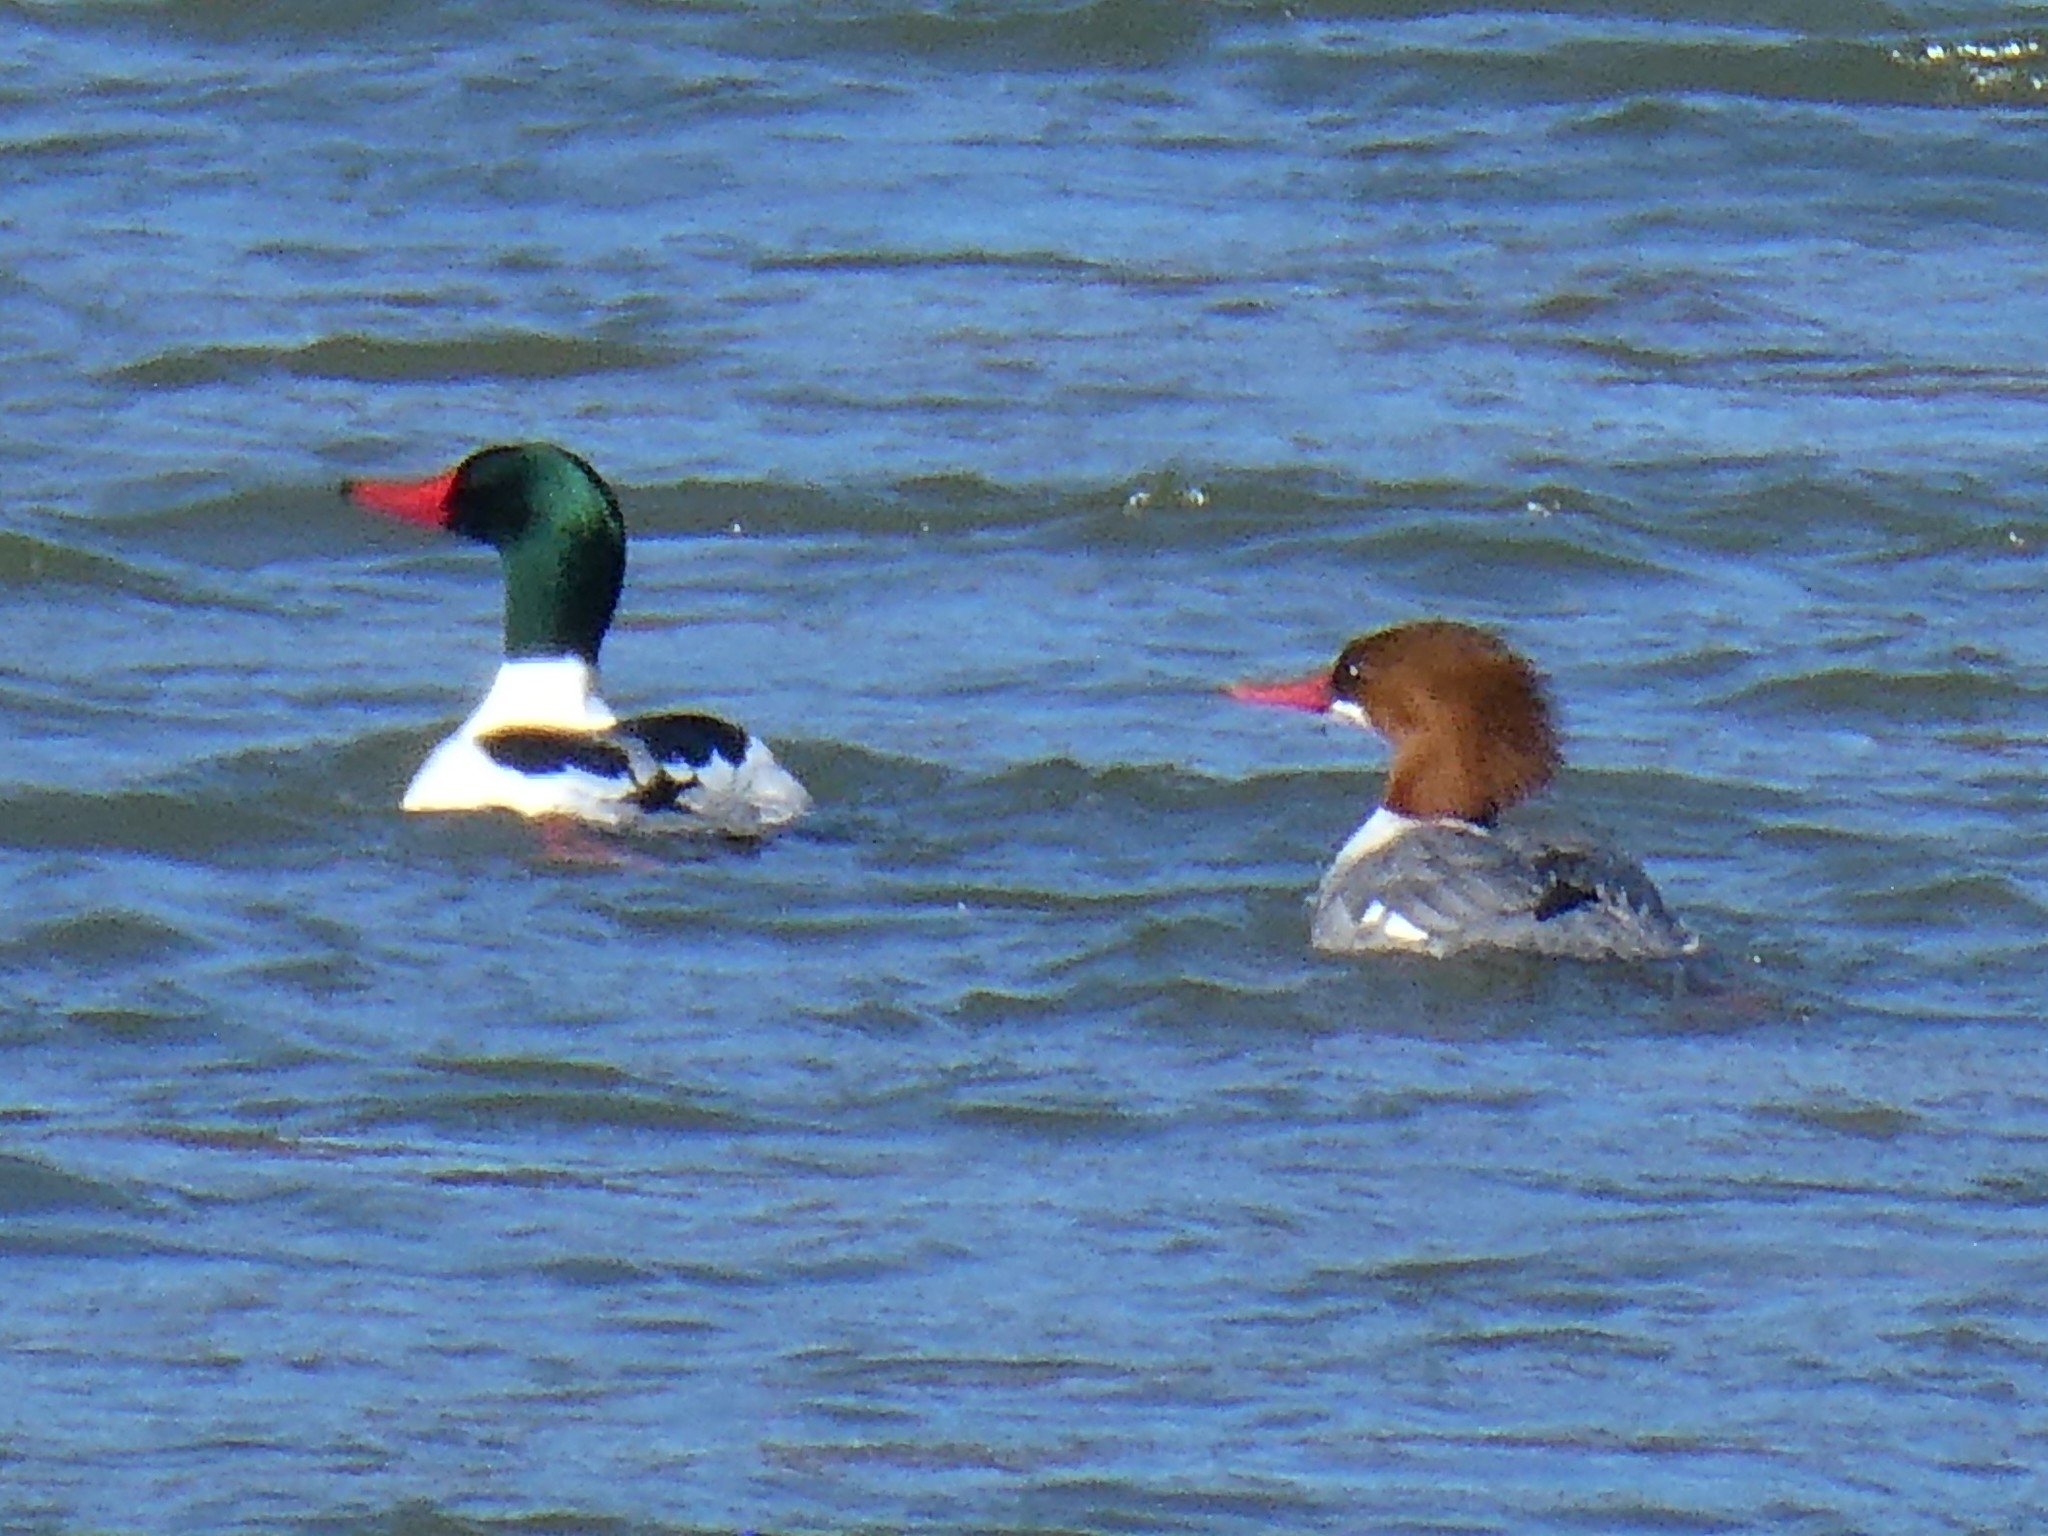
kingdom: Animalia
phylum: Chordata
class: Aves
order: Anseriformes
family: Anatidae
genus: Mergus
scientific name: Mergus merganser
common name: Common merganser
